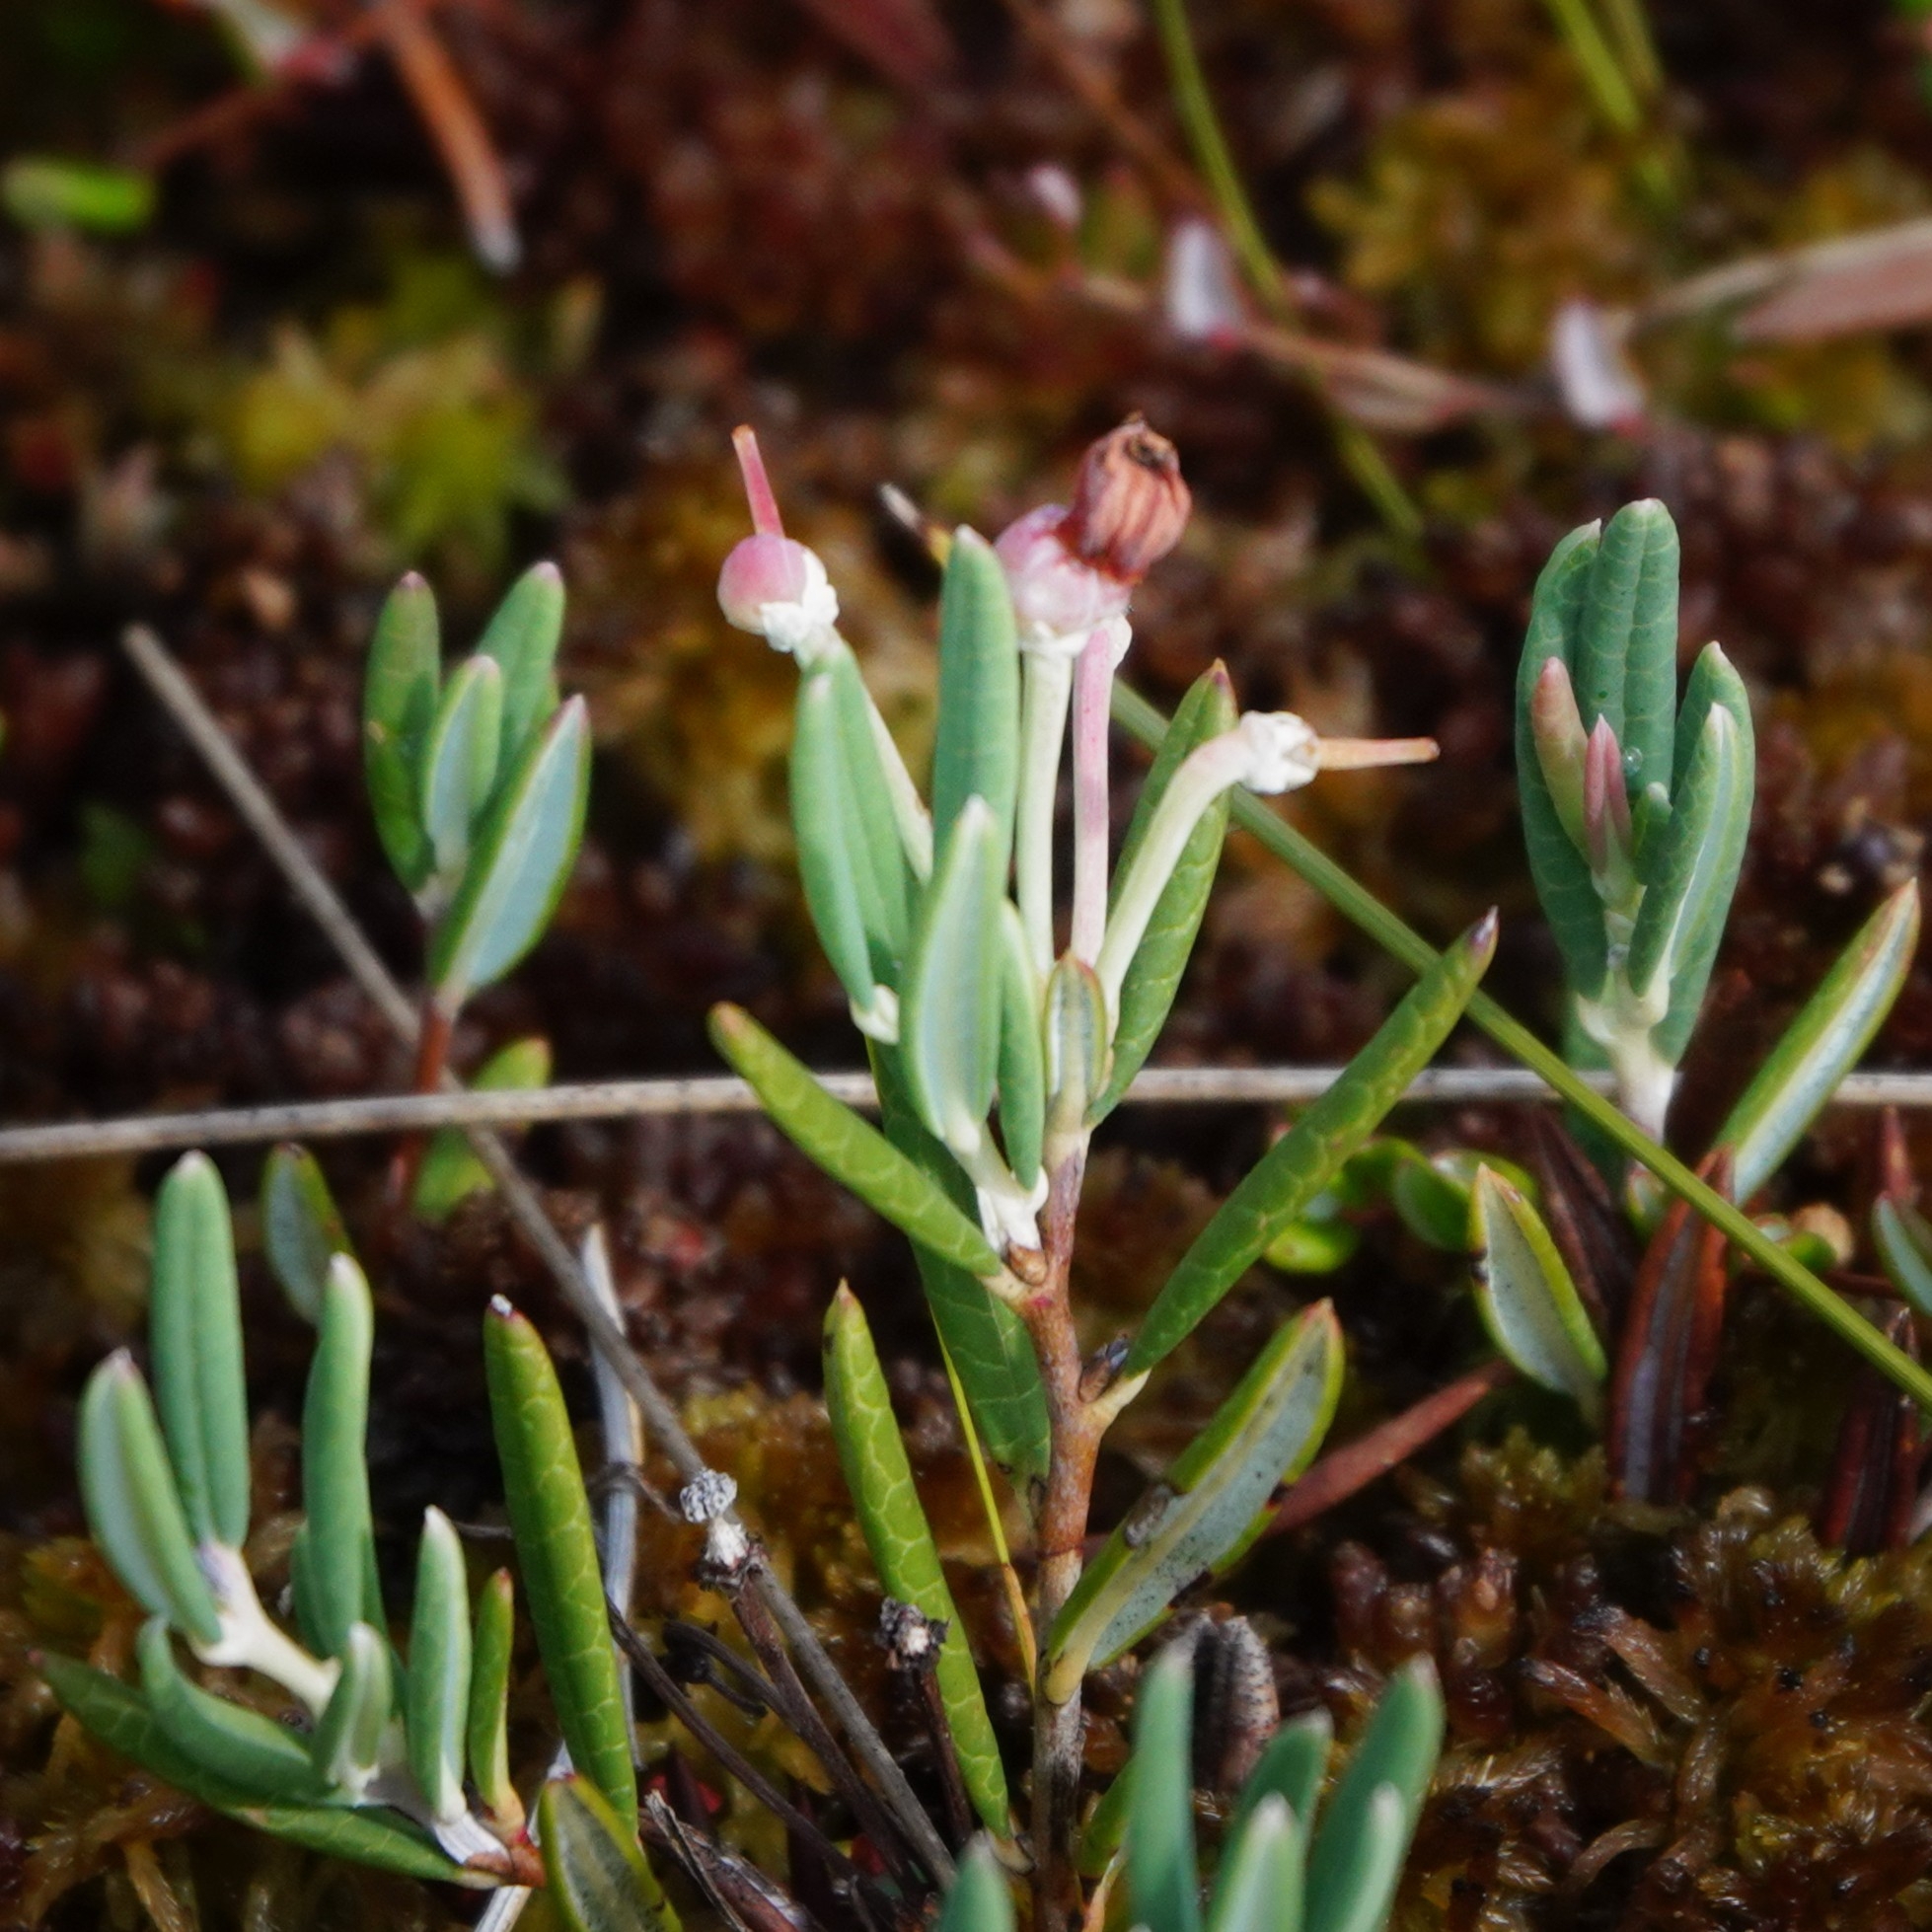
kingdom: Plantae
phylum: Tracheophyta
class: Magnoliopsida
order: Ericales
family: Ericaceae
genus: Andromeda
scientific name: Andromeda polifolia
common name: Bog-rosemary
